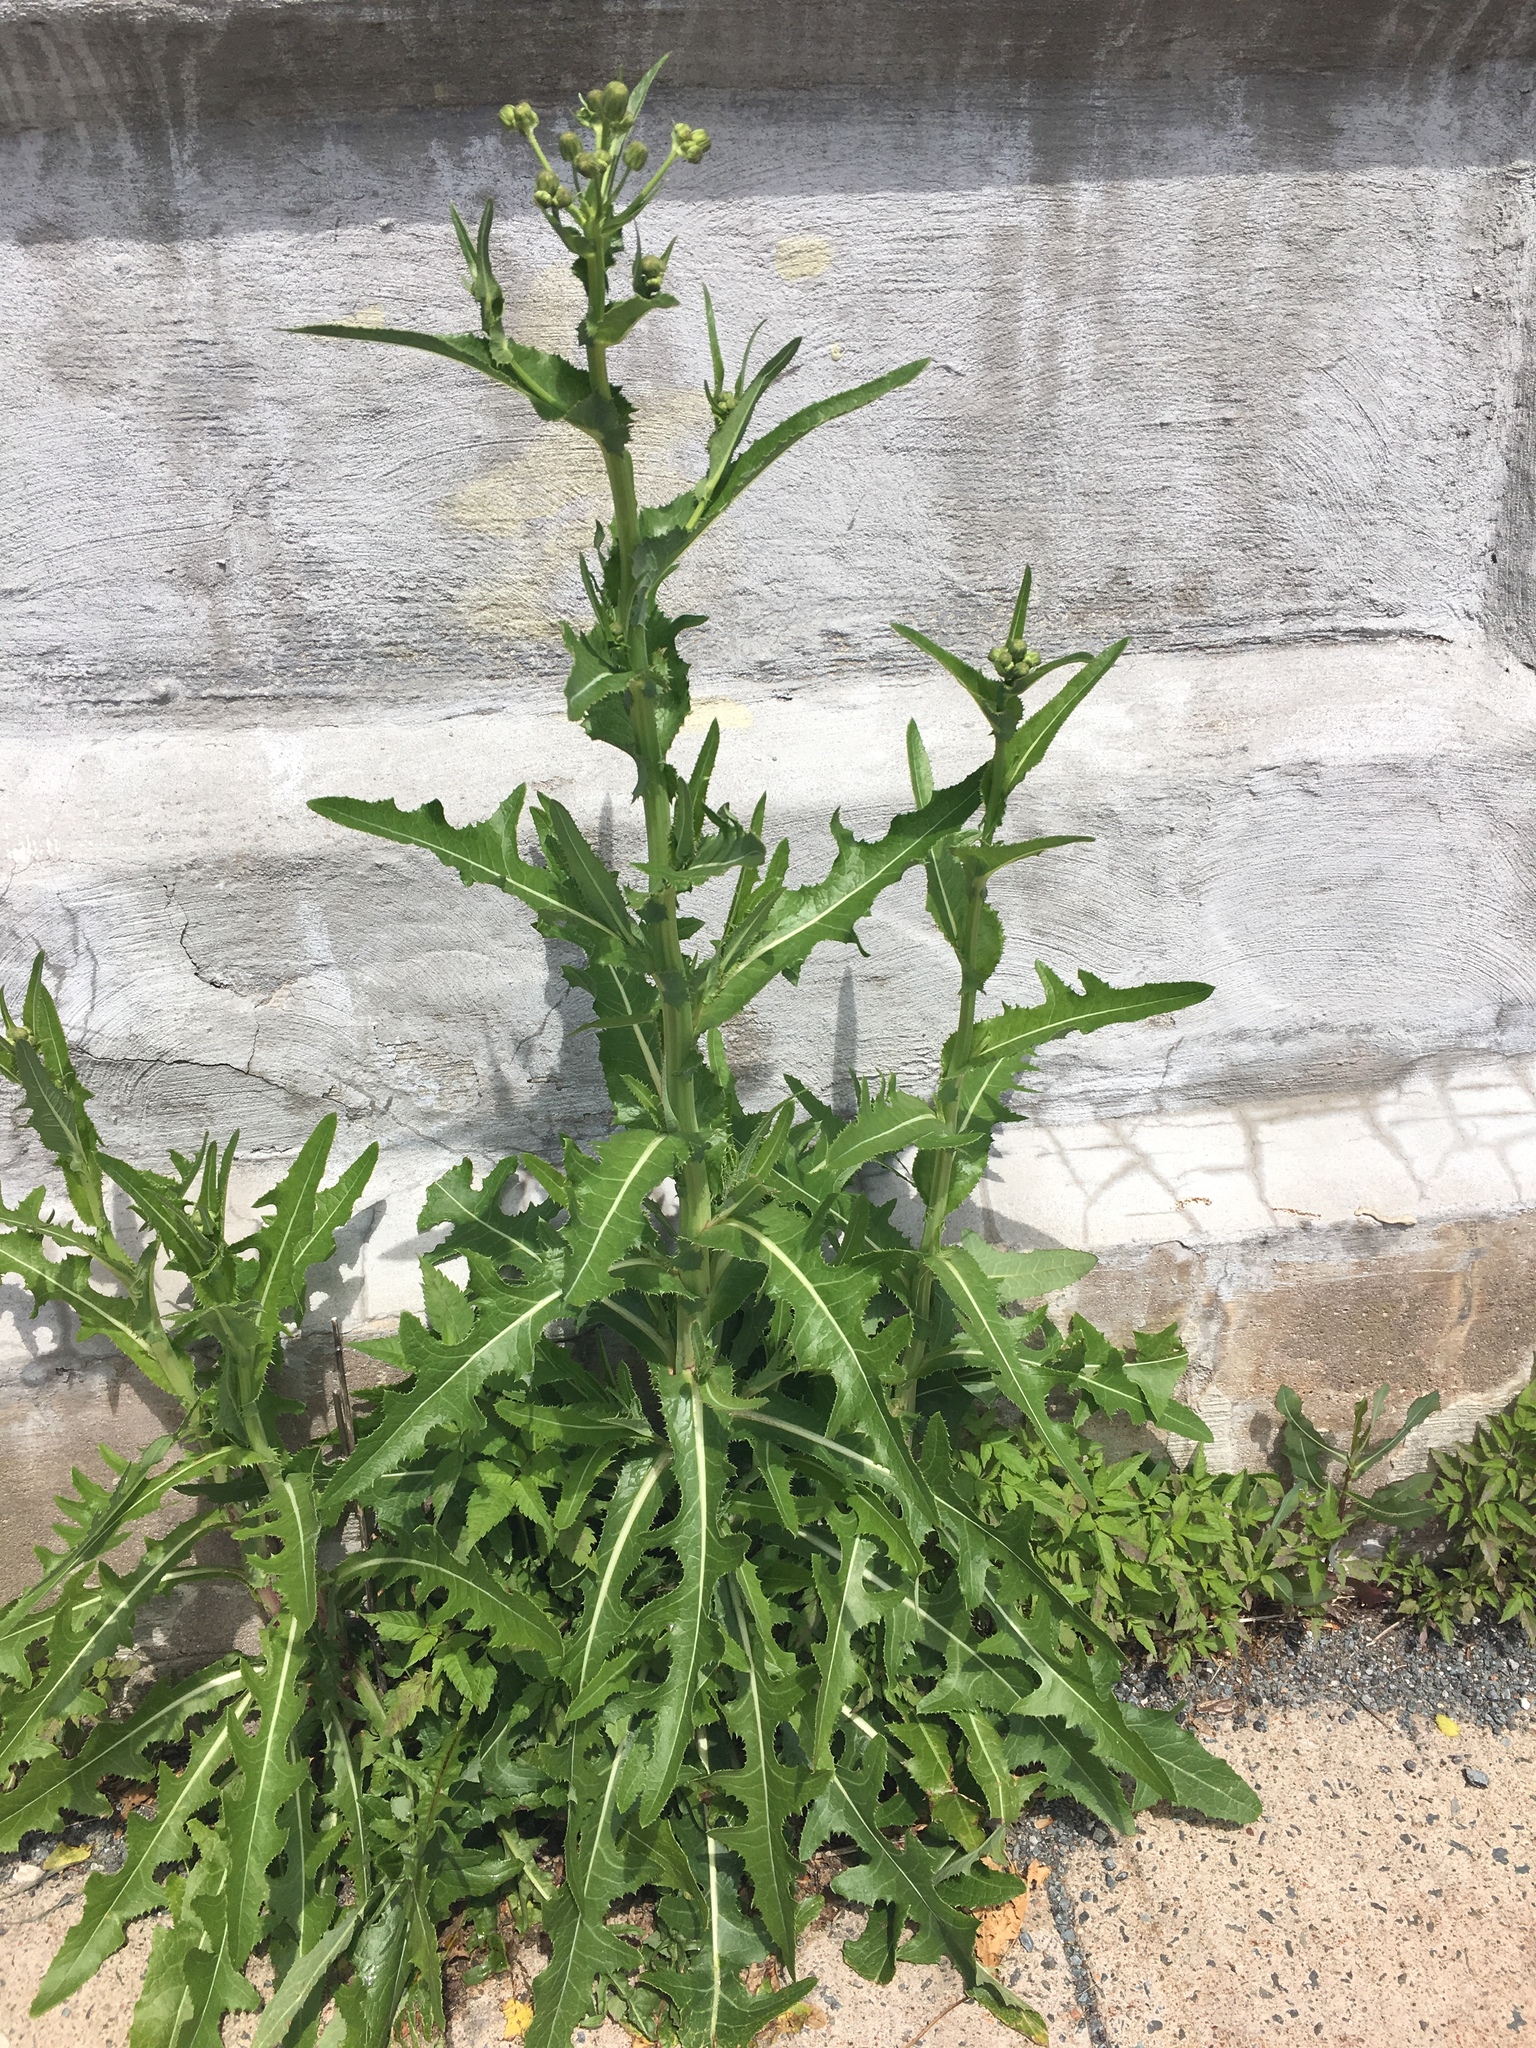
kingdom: Plantae
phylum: Tracheophyta
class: Magnoliopsida
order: Asterales
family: Asteraceae
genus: Sonchus
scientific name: Sonchus arvensis
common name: Perennial sow-thistle
